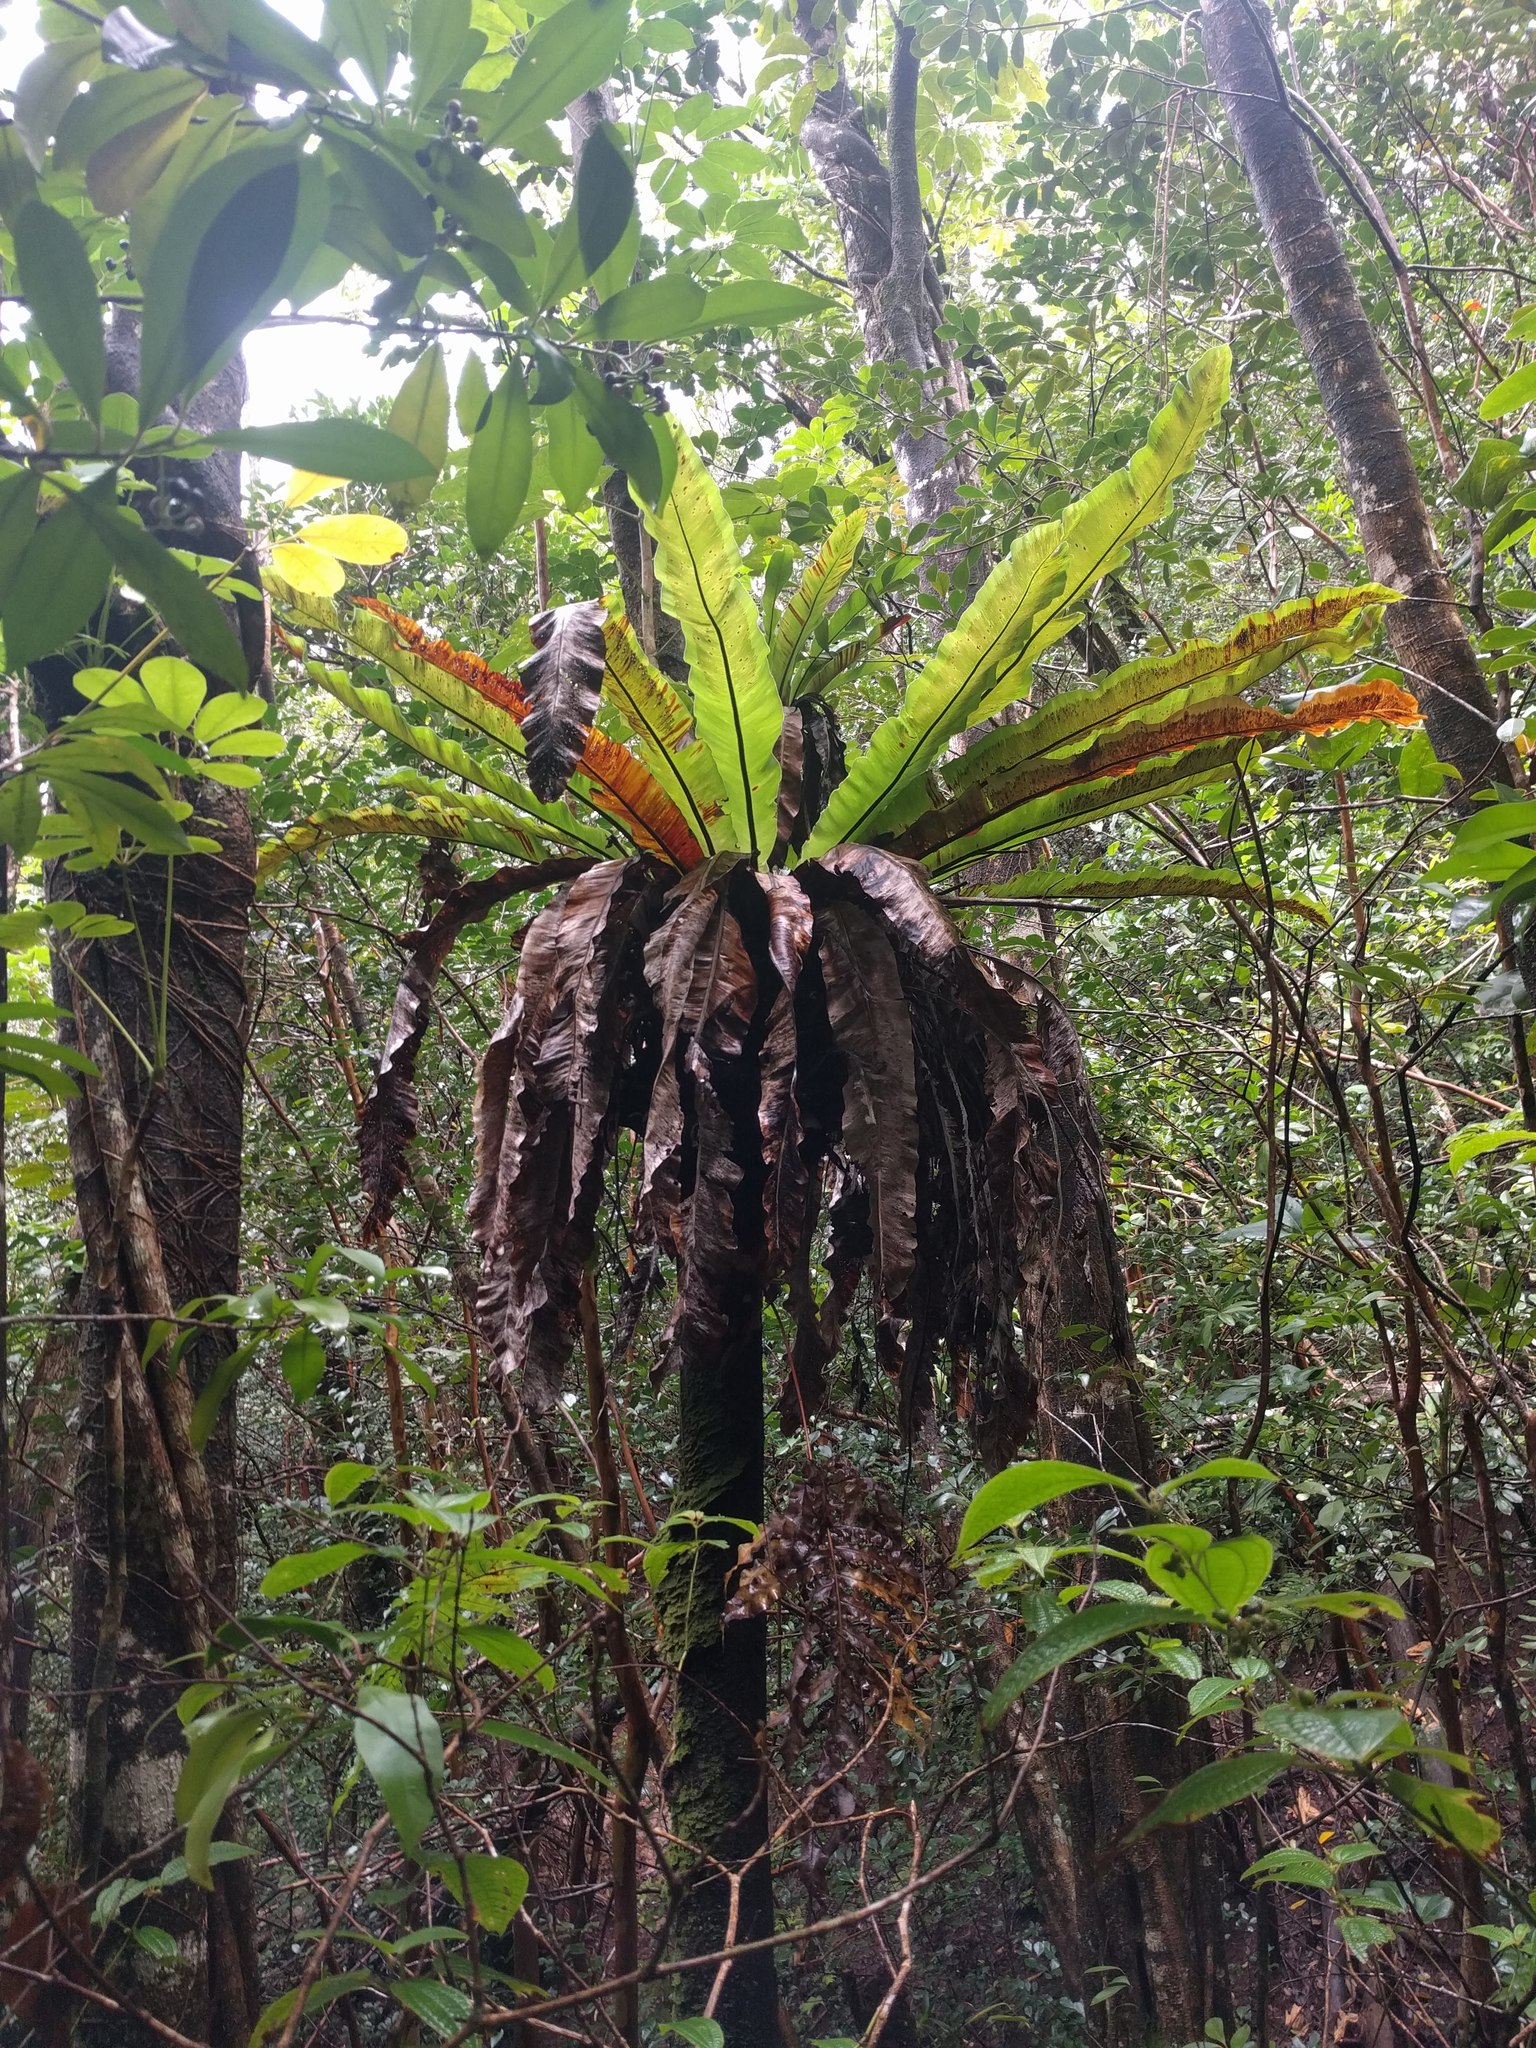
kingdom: Plantae
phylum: Tracheophyta
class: Polypodiopsida
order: Polypodiales
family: Aspleniaceae
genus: Asplenium
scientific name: Asplenium nidus
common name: Bird's-nest fern
